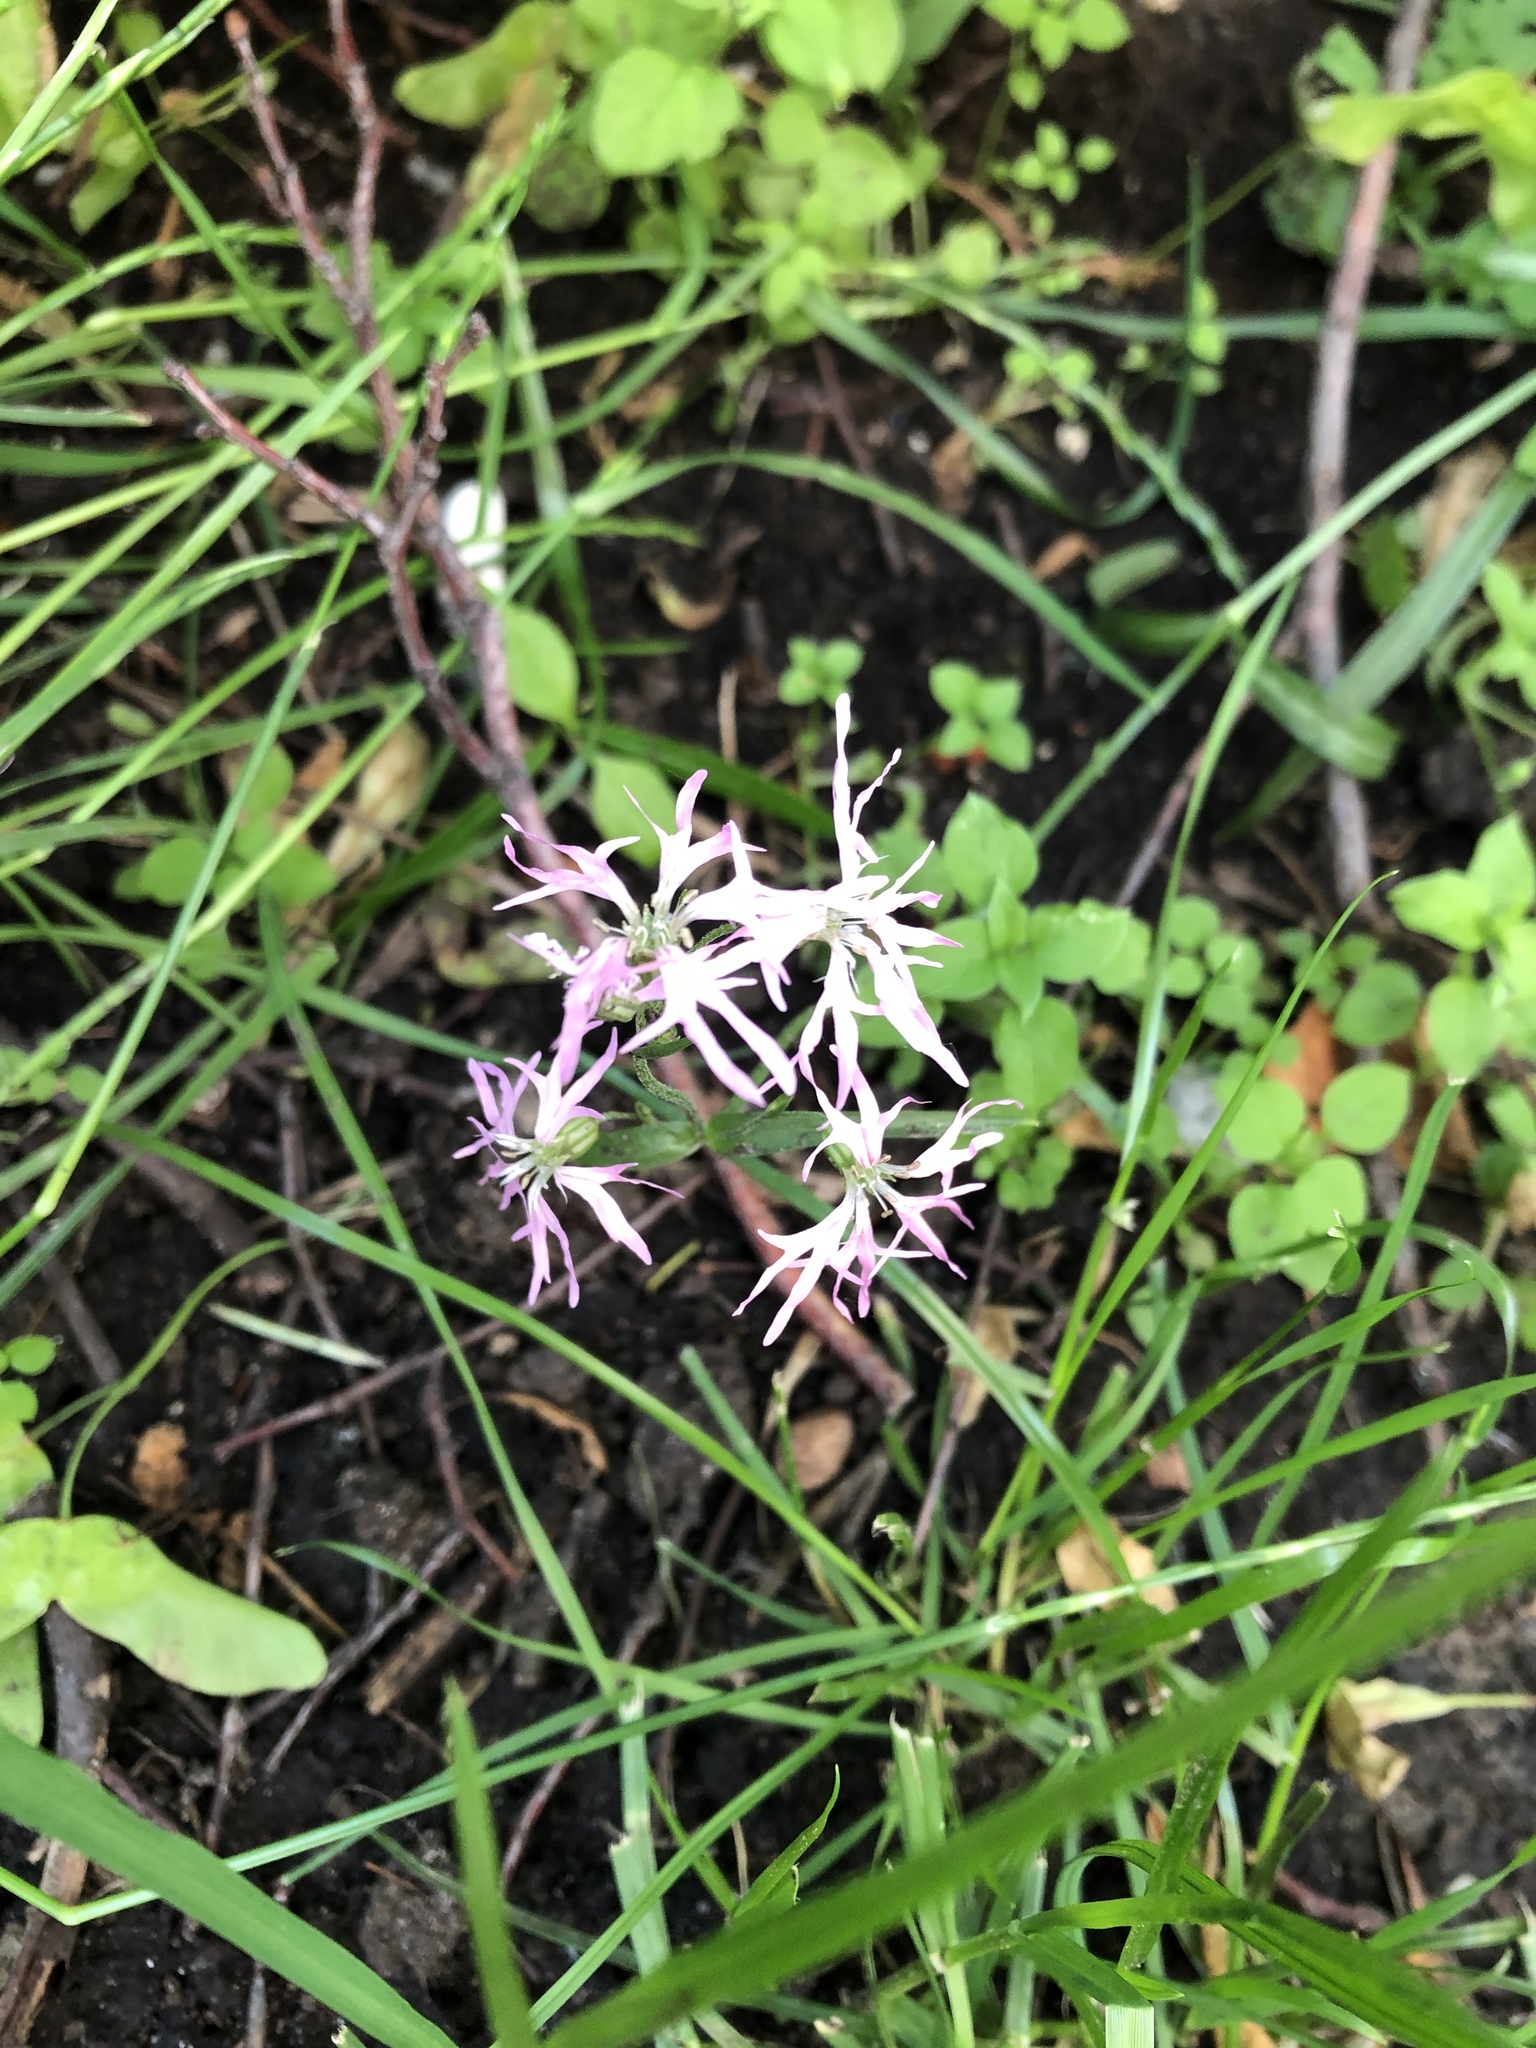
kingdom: Plantae
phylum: Tracheophyta
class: Magnoliopsida
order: Caryophyllales
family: Caryophyllaceae
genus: Silene
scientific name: Silene flos-cuculi
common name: Ragged-robin
